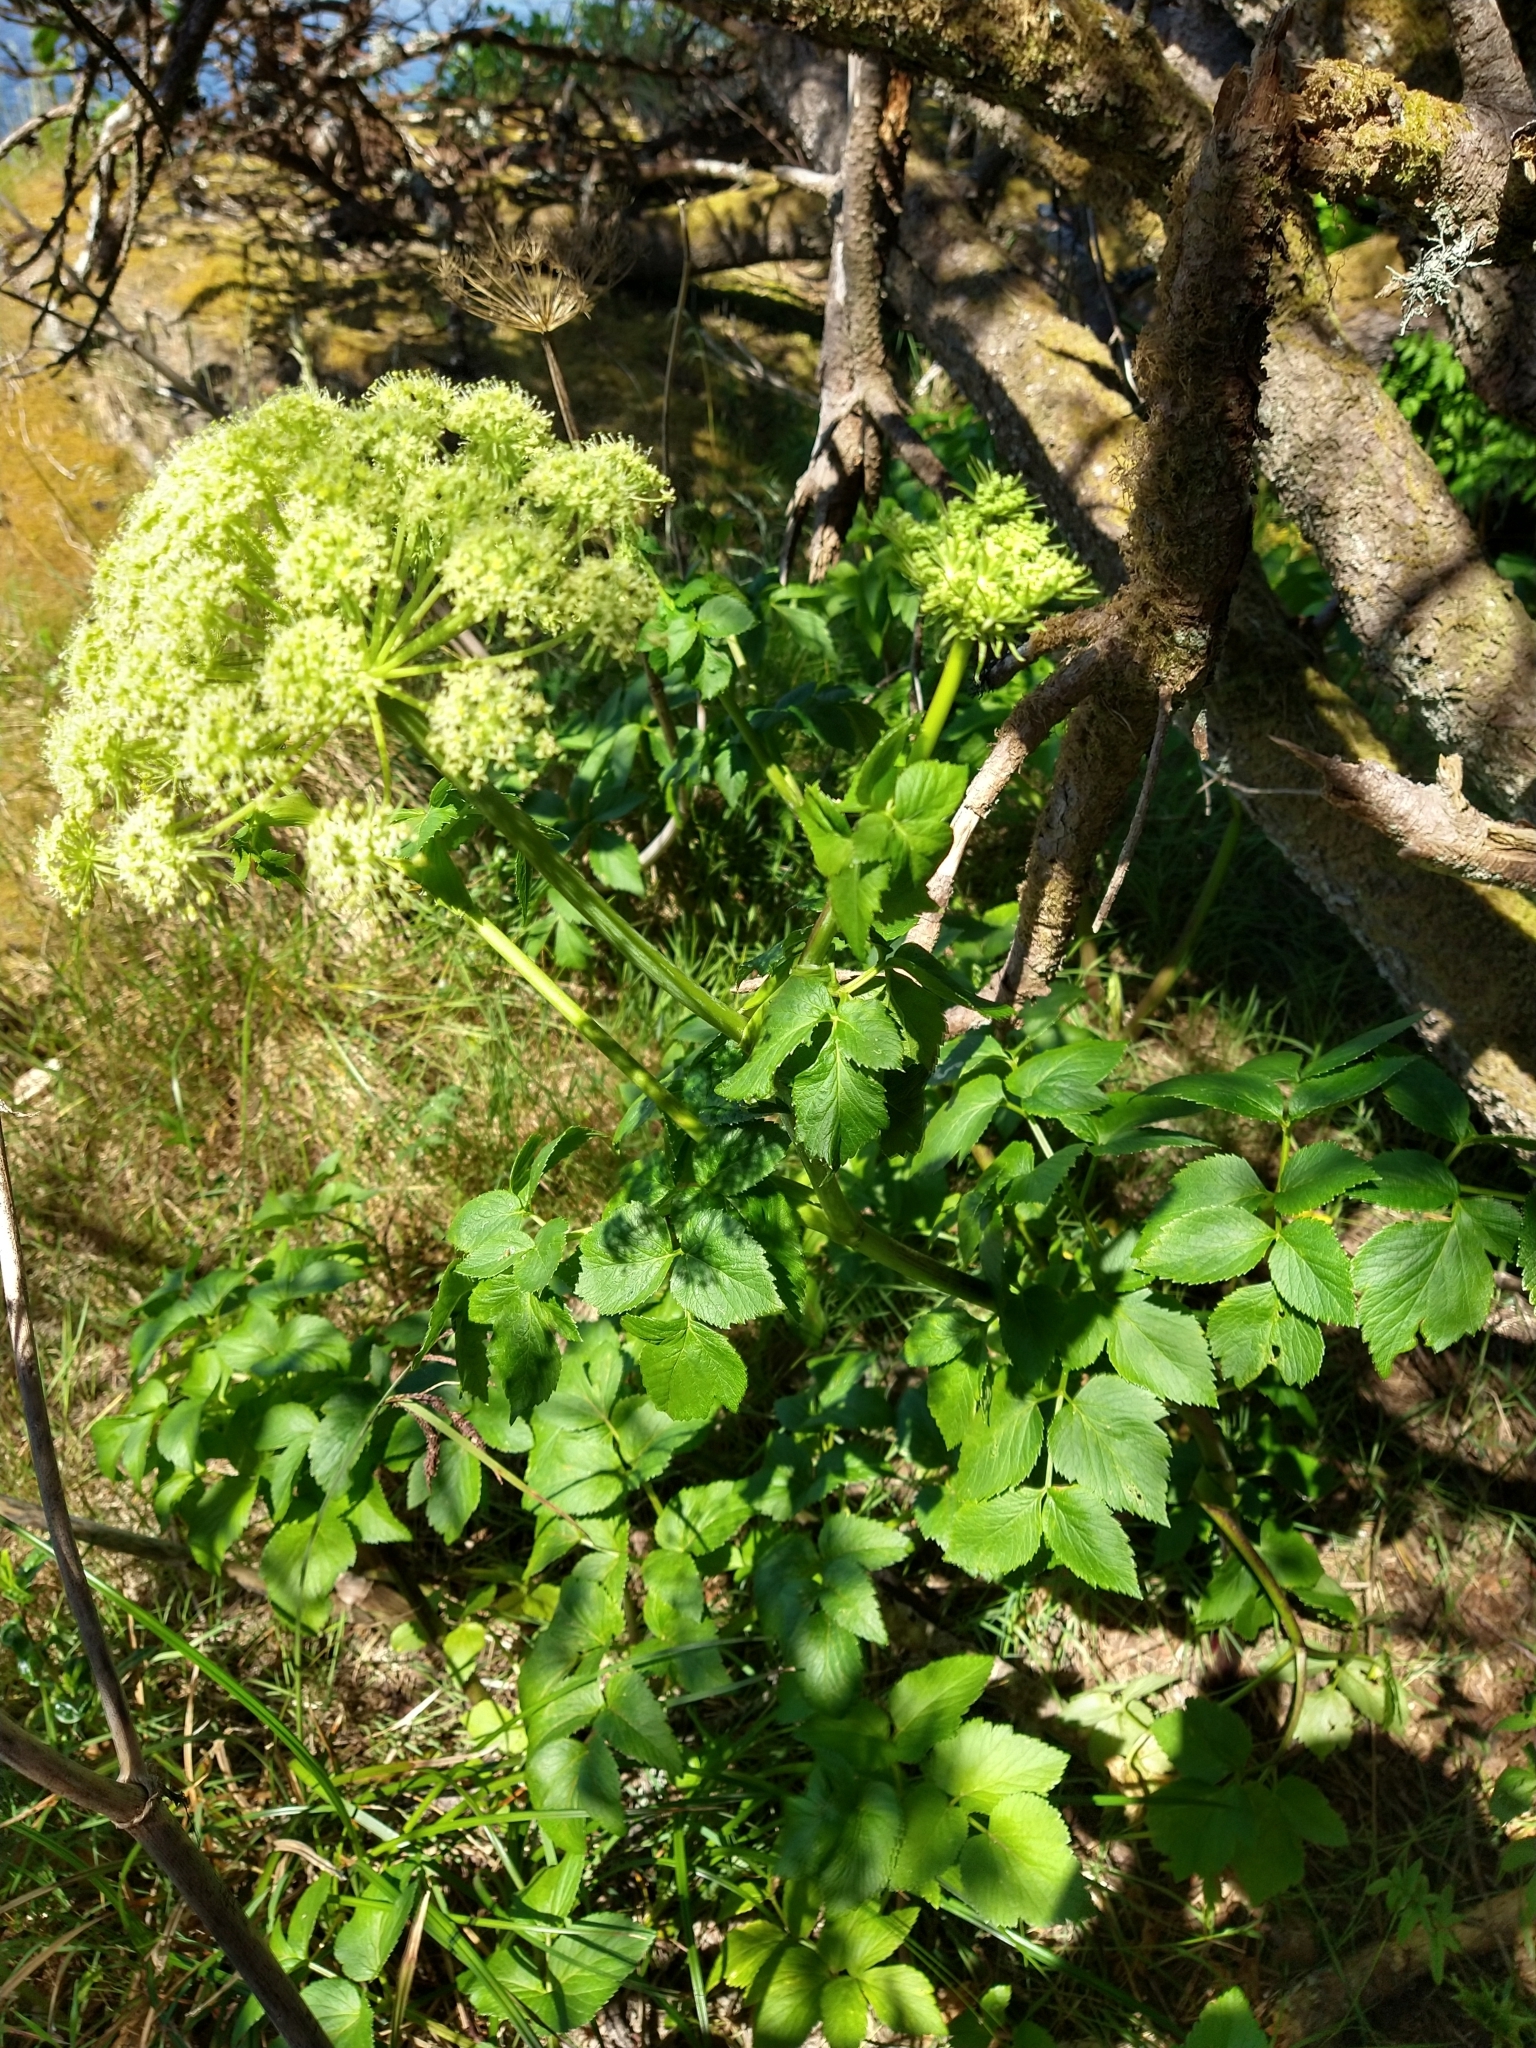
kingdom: Plantae
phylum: Tracheophyta
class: Magnoliopsida
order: Apiales
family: Apiaceae
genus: Angelica
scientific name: Angelica lucida
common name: Seabeach angelica
